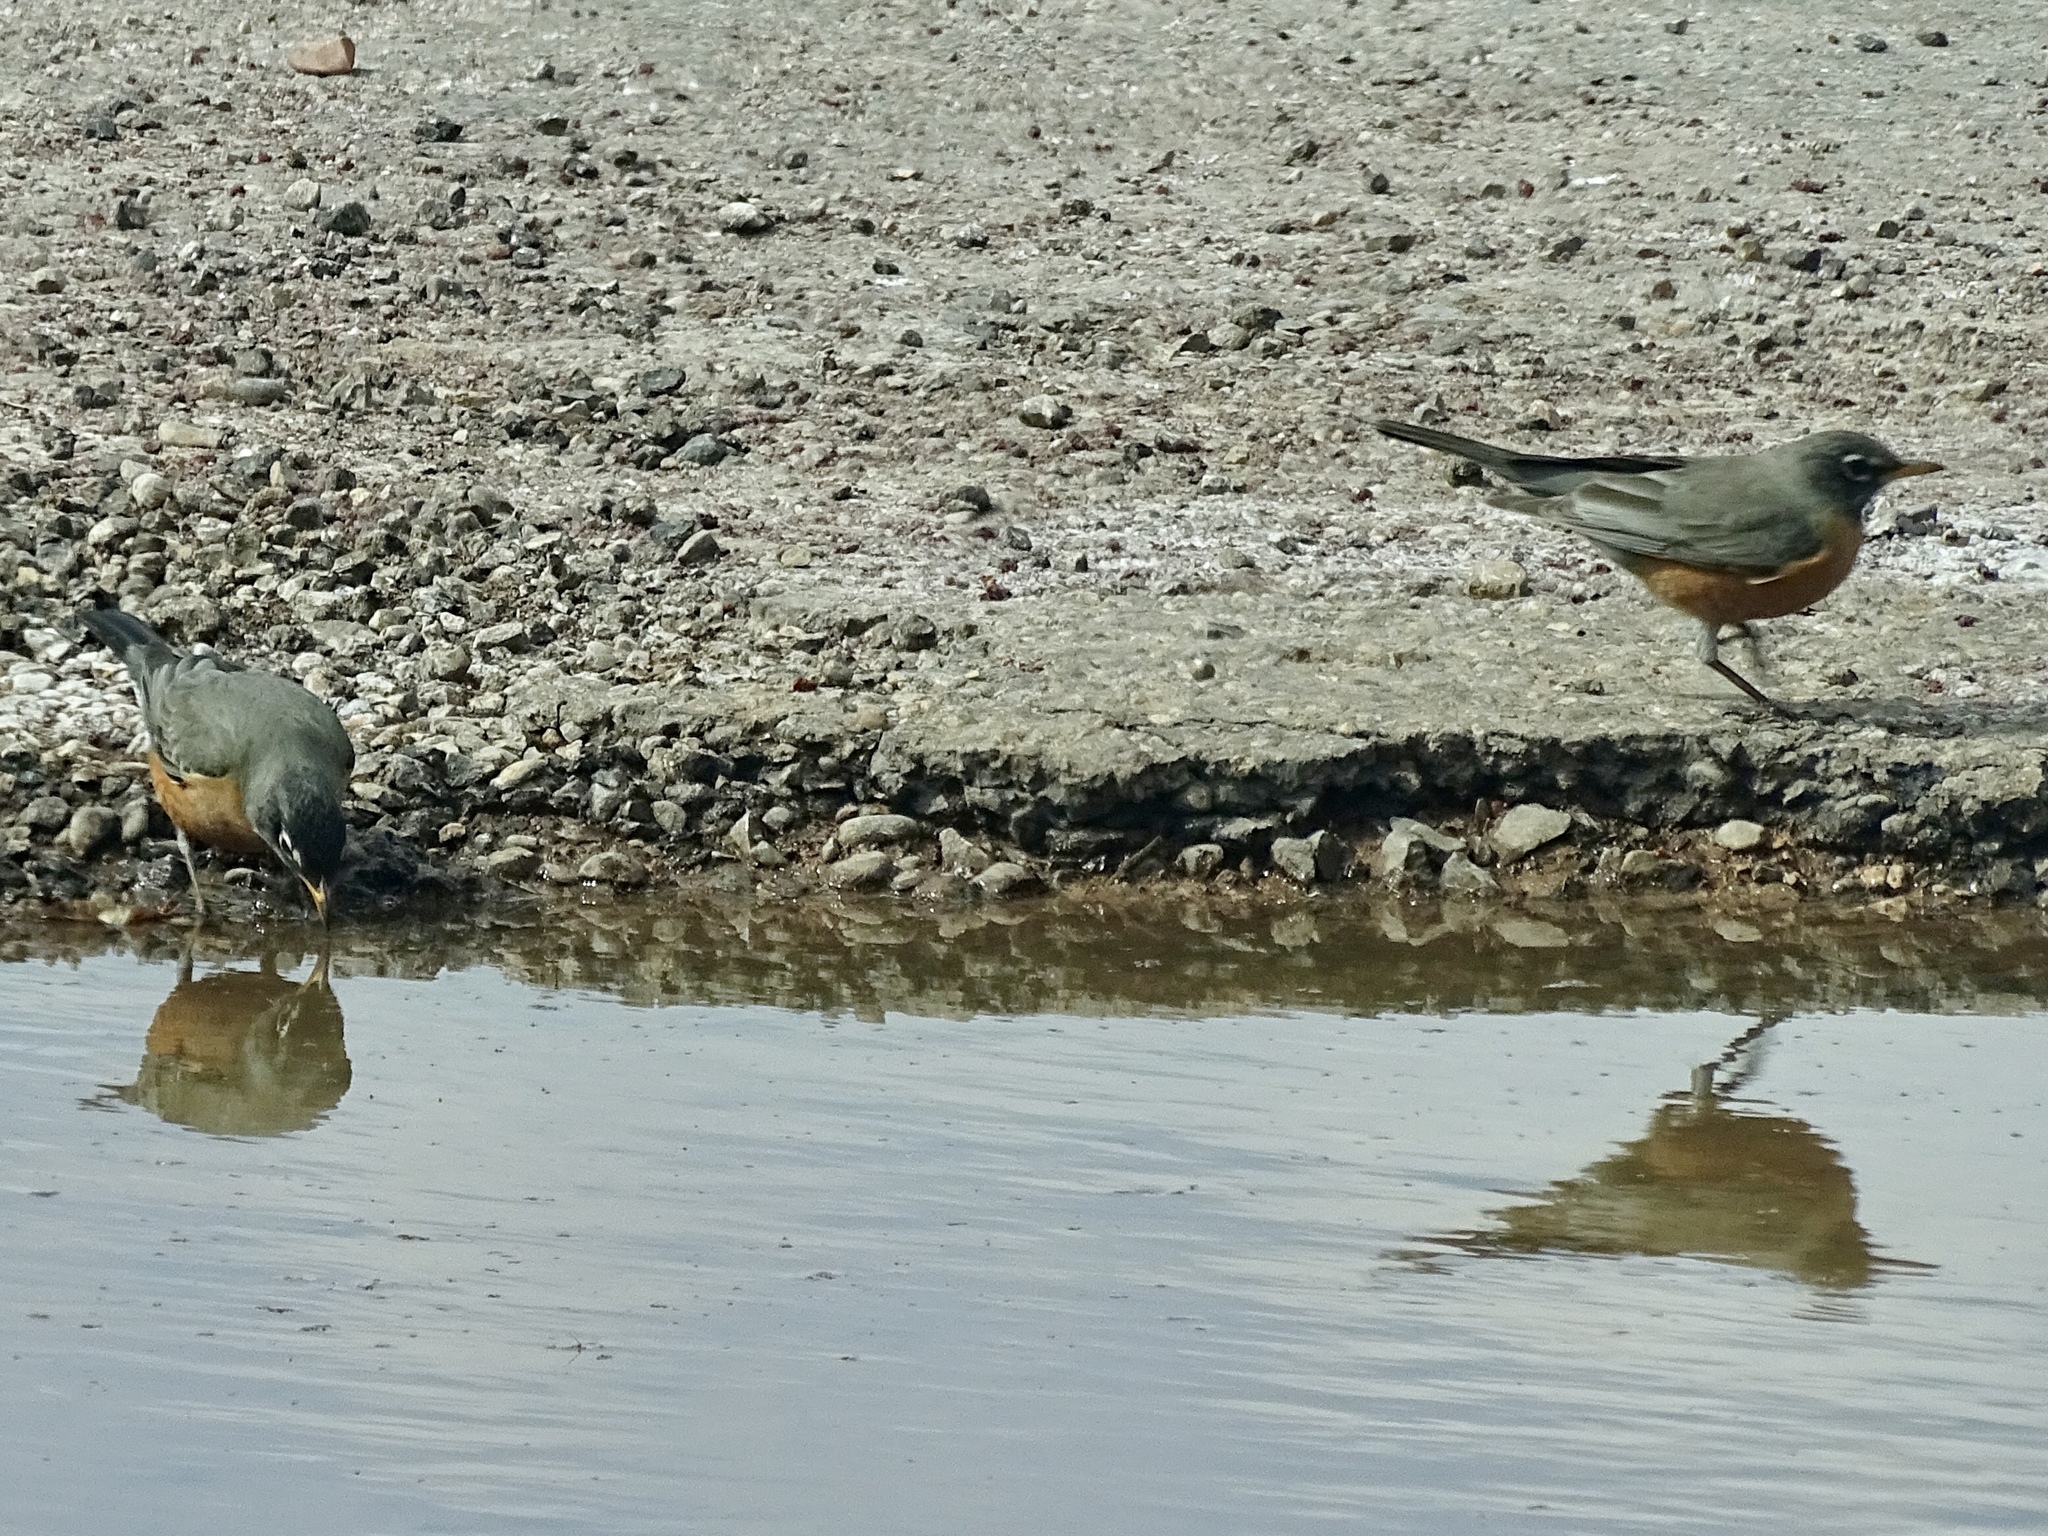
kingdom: Animalia
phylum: Chordata
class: Aves
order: Passeriformes
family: Turdidae
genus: Turdus
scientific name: Turdus migratorius
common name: American robin
